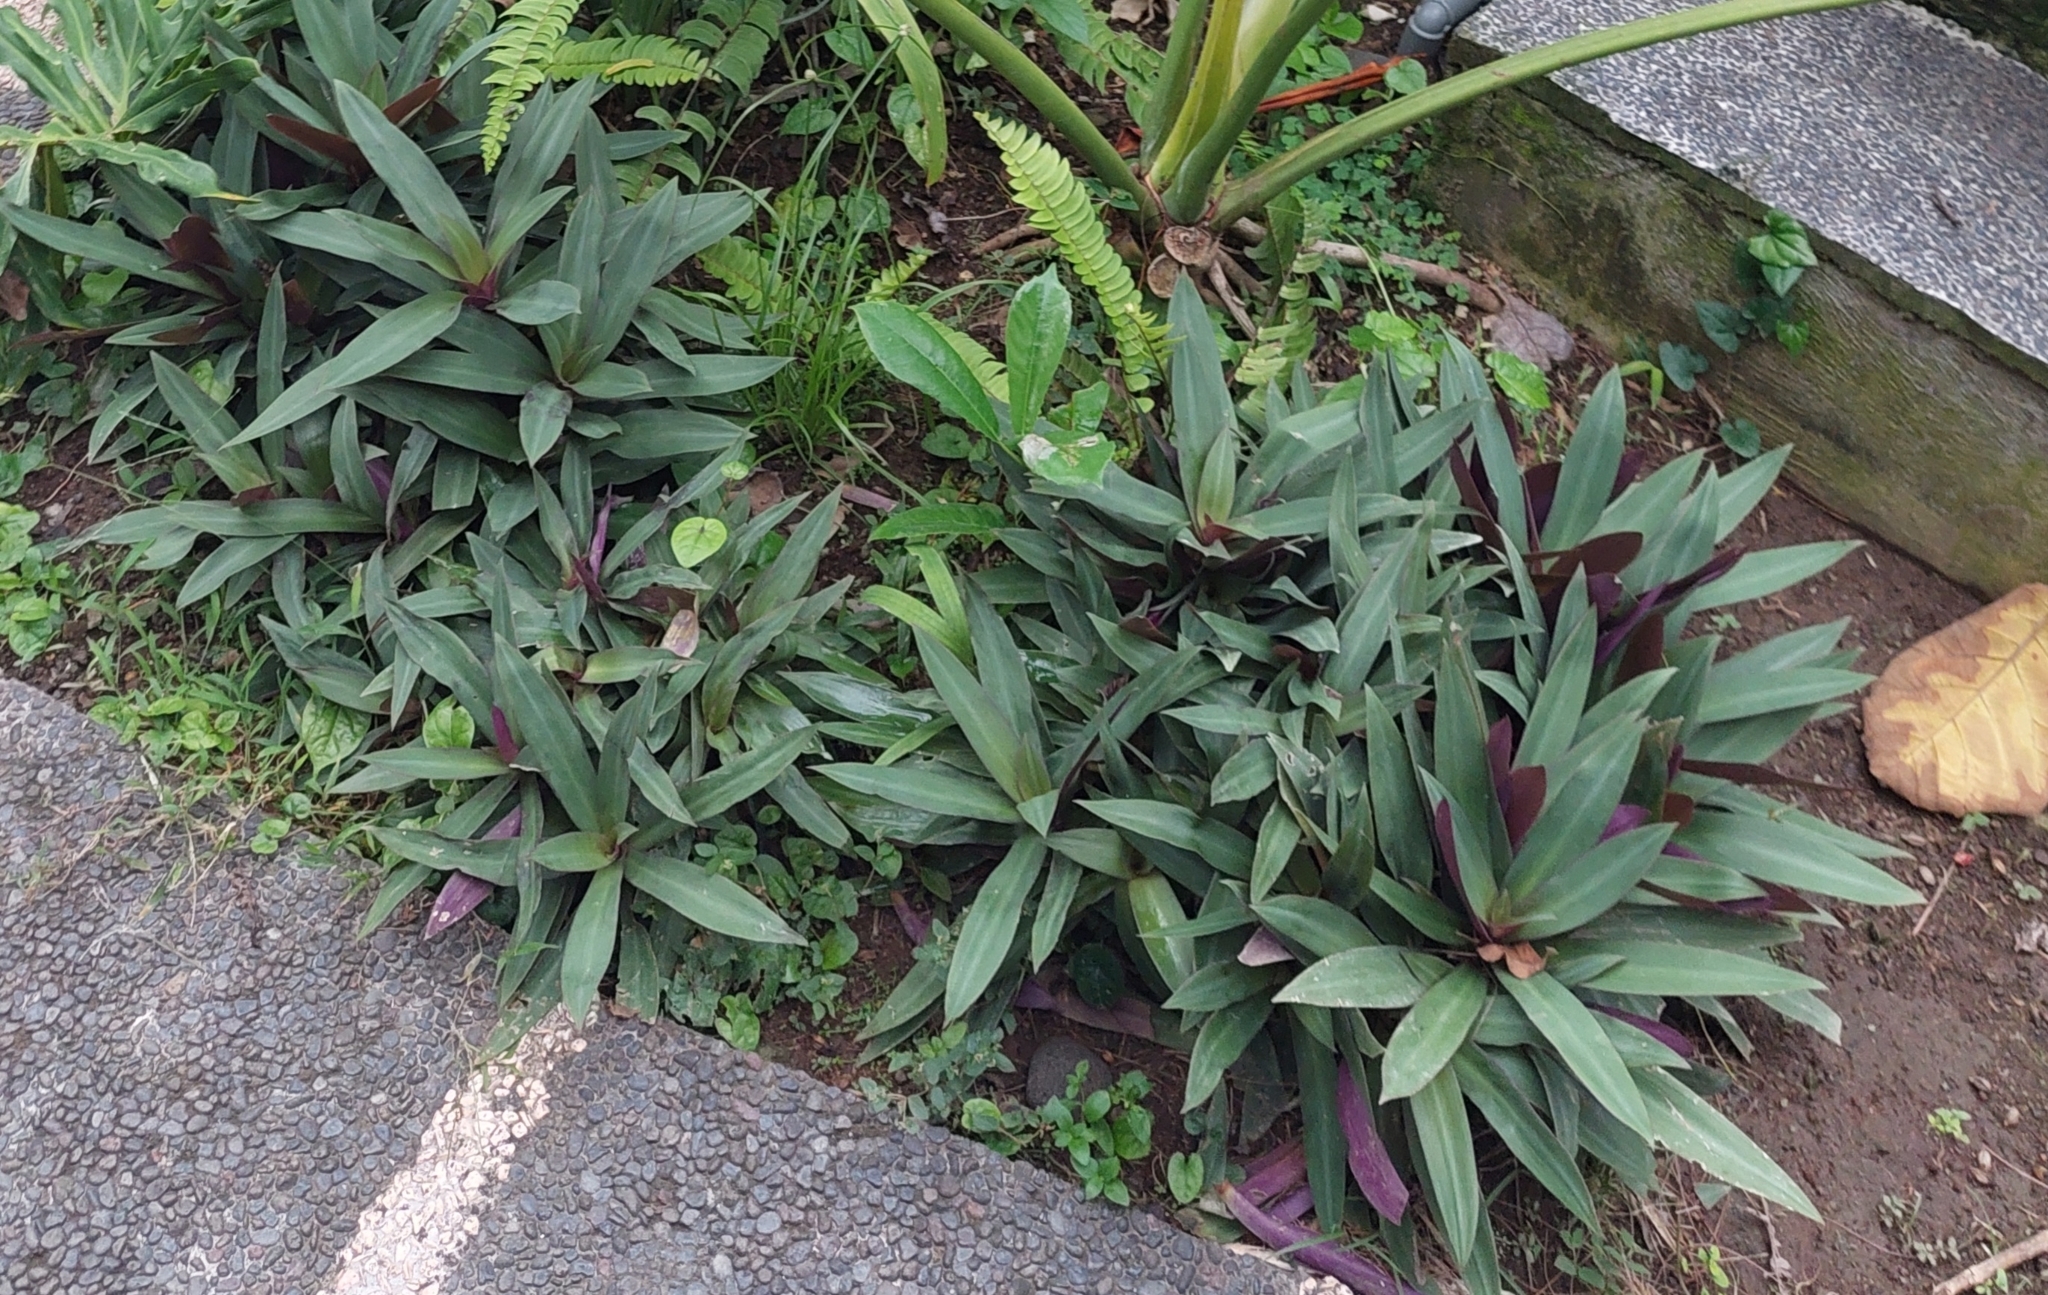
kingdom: Plantae
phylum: Tracheophyta
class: Liliopsida
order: Commelinales
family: Commelinaceae
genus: Tradescantia
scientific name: Tradescantia spathacea
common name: Boatlily
